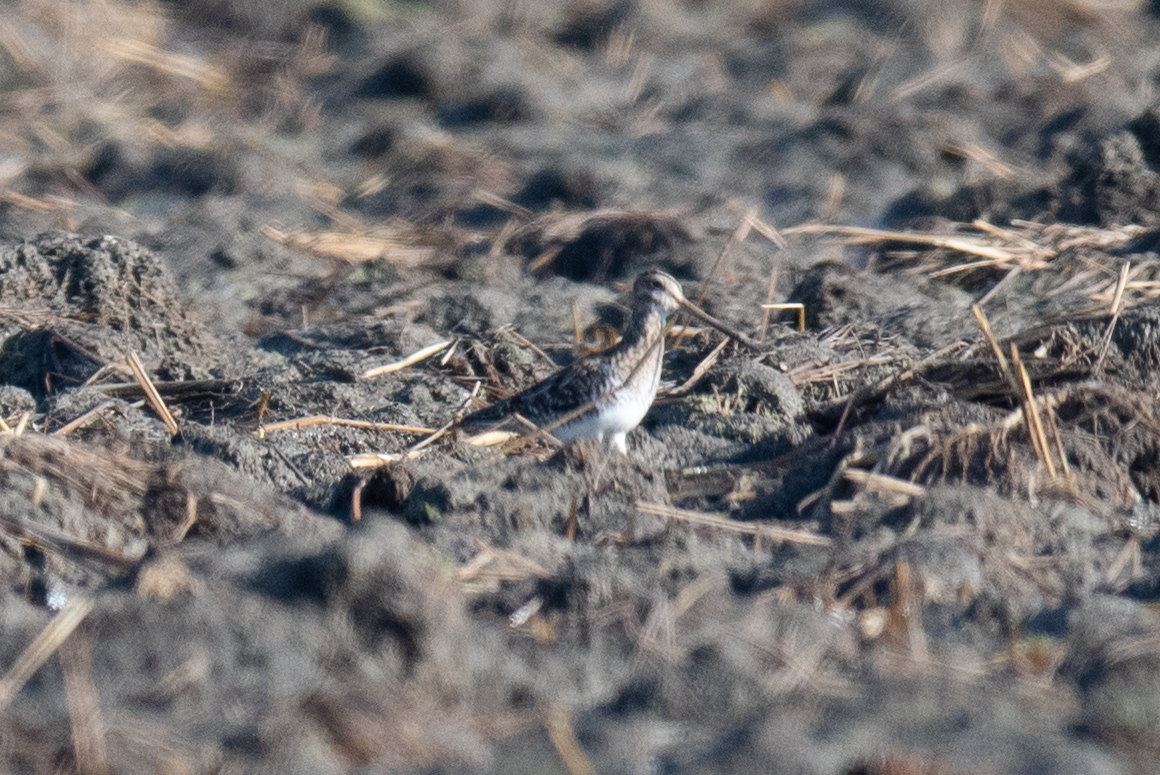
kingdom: Animalia
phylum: Chordata
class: Aves
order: Charadriiformes
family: Scolopacidae
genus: Gallinago
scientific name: Gallinago delicata
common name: Wilson's snipe
